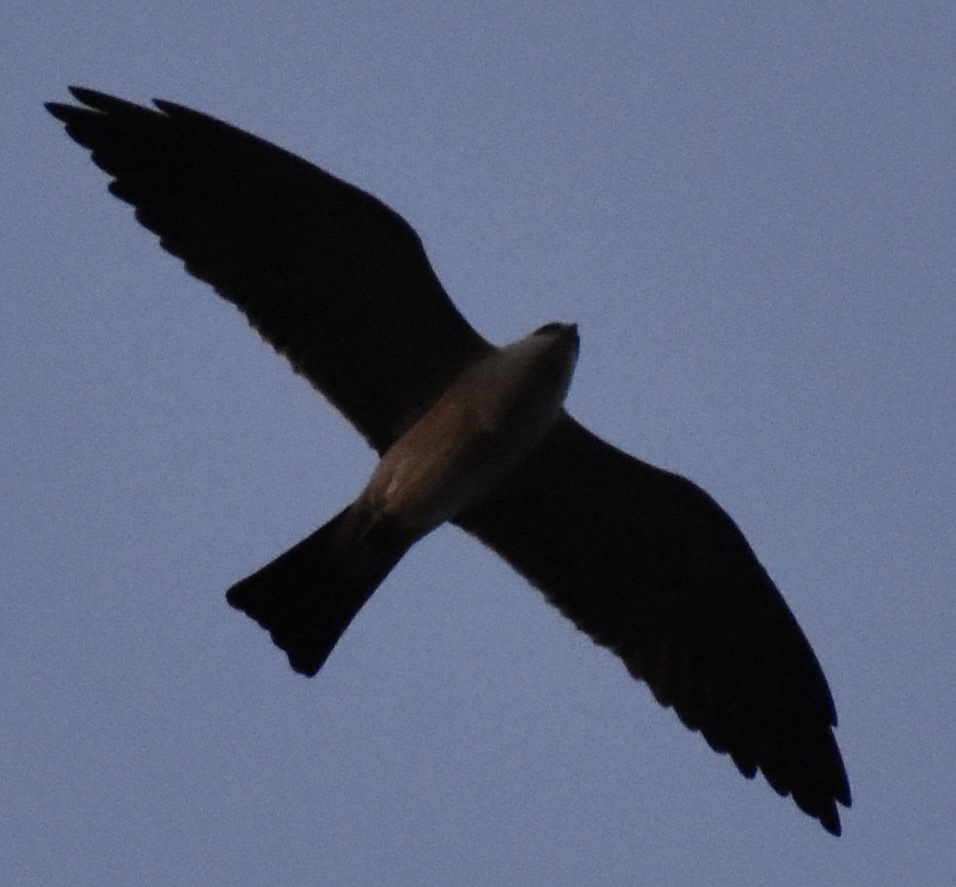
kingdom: Animalia
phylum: Chordata
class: Aves
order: Accipitriformes
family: Accipitridae
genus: Ictinia
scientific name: Ictinia mississippiensis
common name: Mississippi kite
